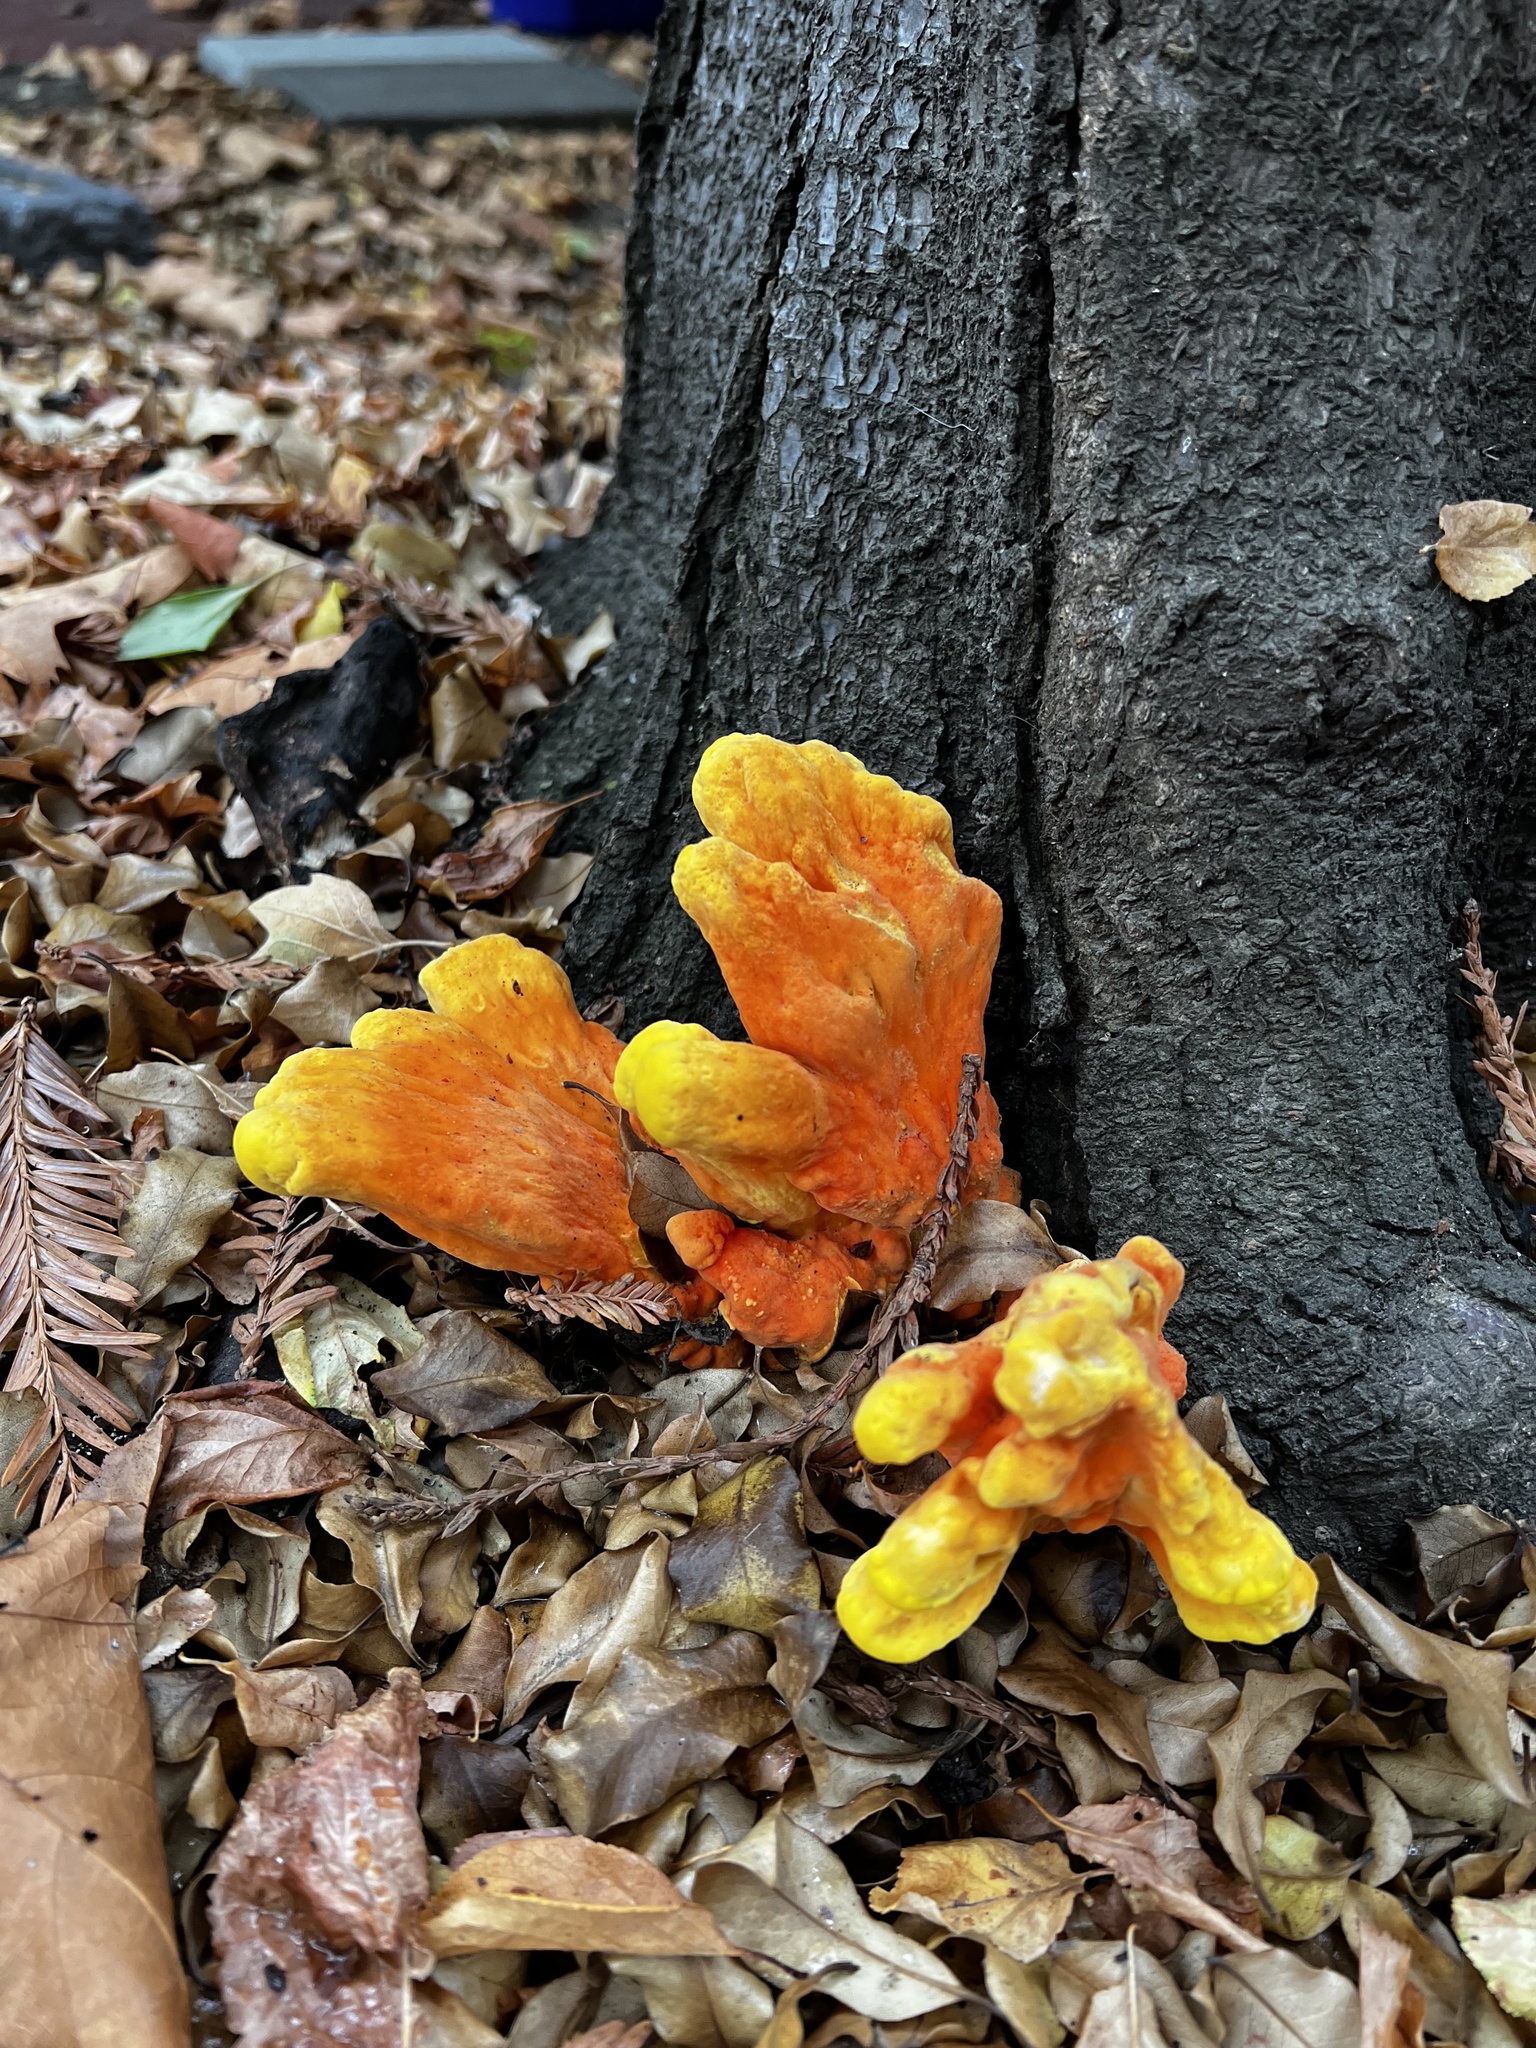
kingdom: Fungi
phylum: Basidiomycota
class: Agaricomycetes
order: Polyporales
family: Laetiporaceae
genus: Laetiporus
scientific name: Laetiporus gilbertsonii
